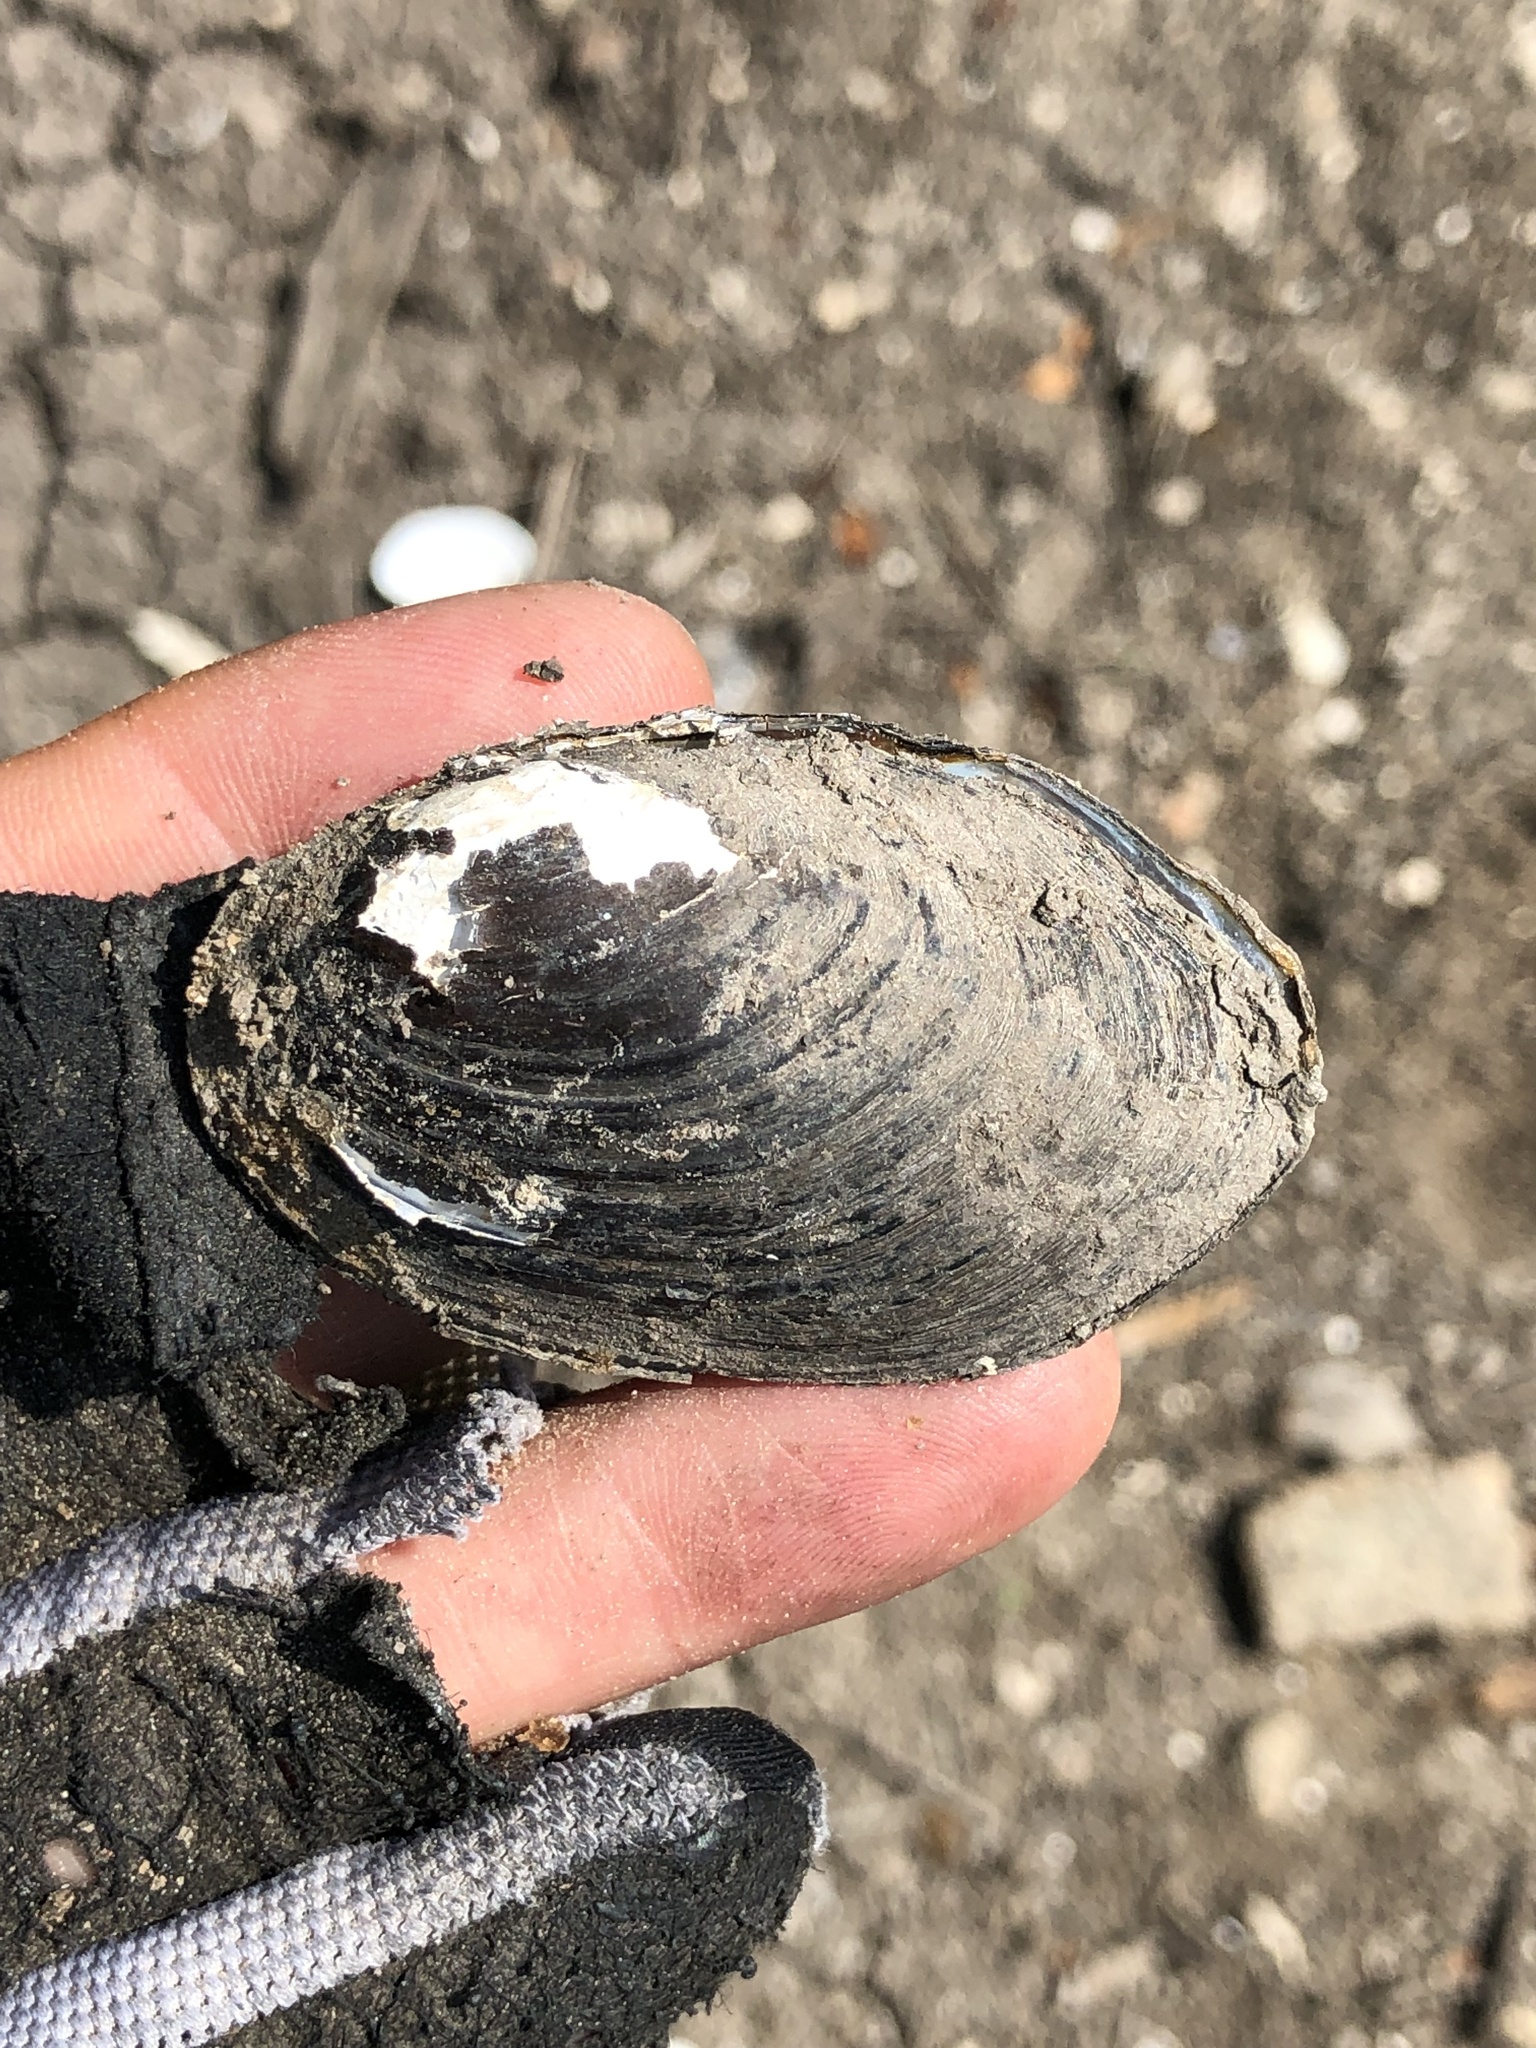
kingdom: Animalia
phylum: Mollusca
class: Bivalvia
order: Unionida
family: Unionidae
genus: Toxolasma
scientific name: Toxolasma texasiense
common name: Texas lilliput
